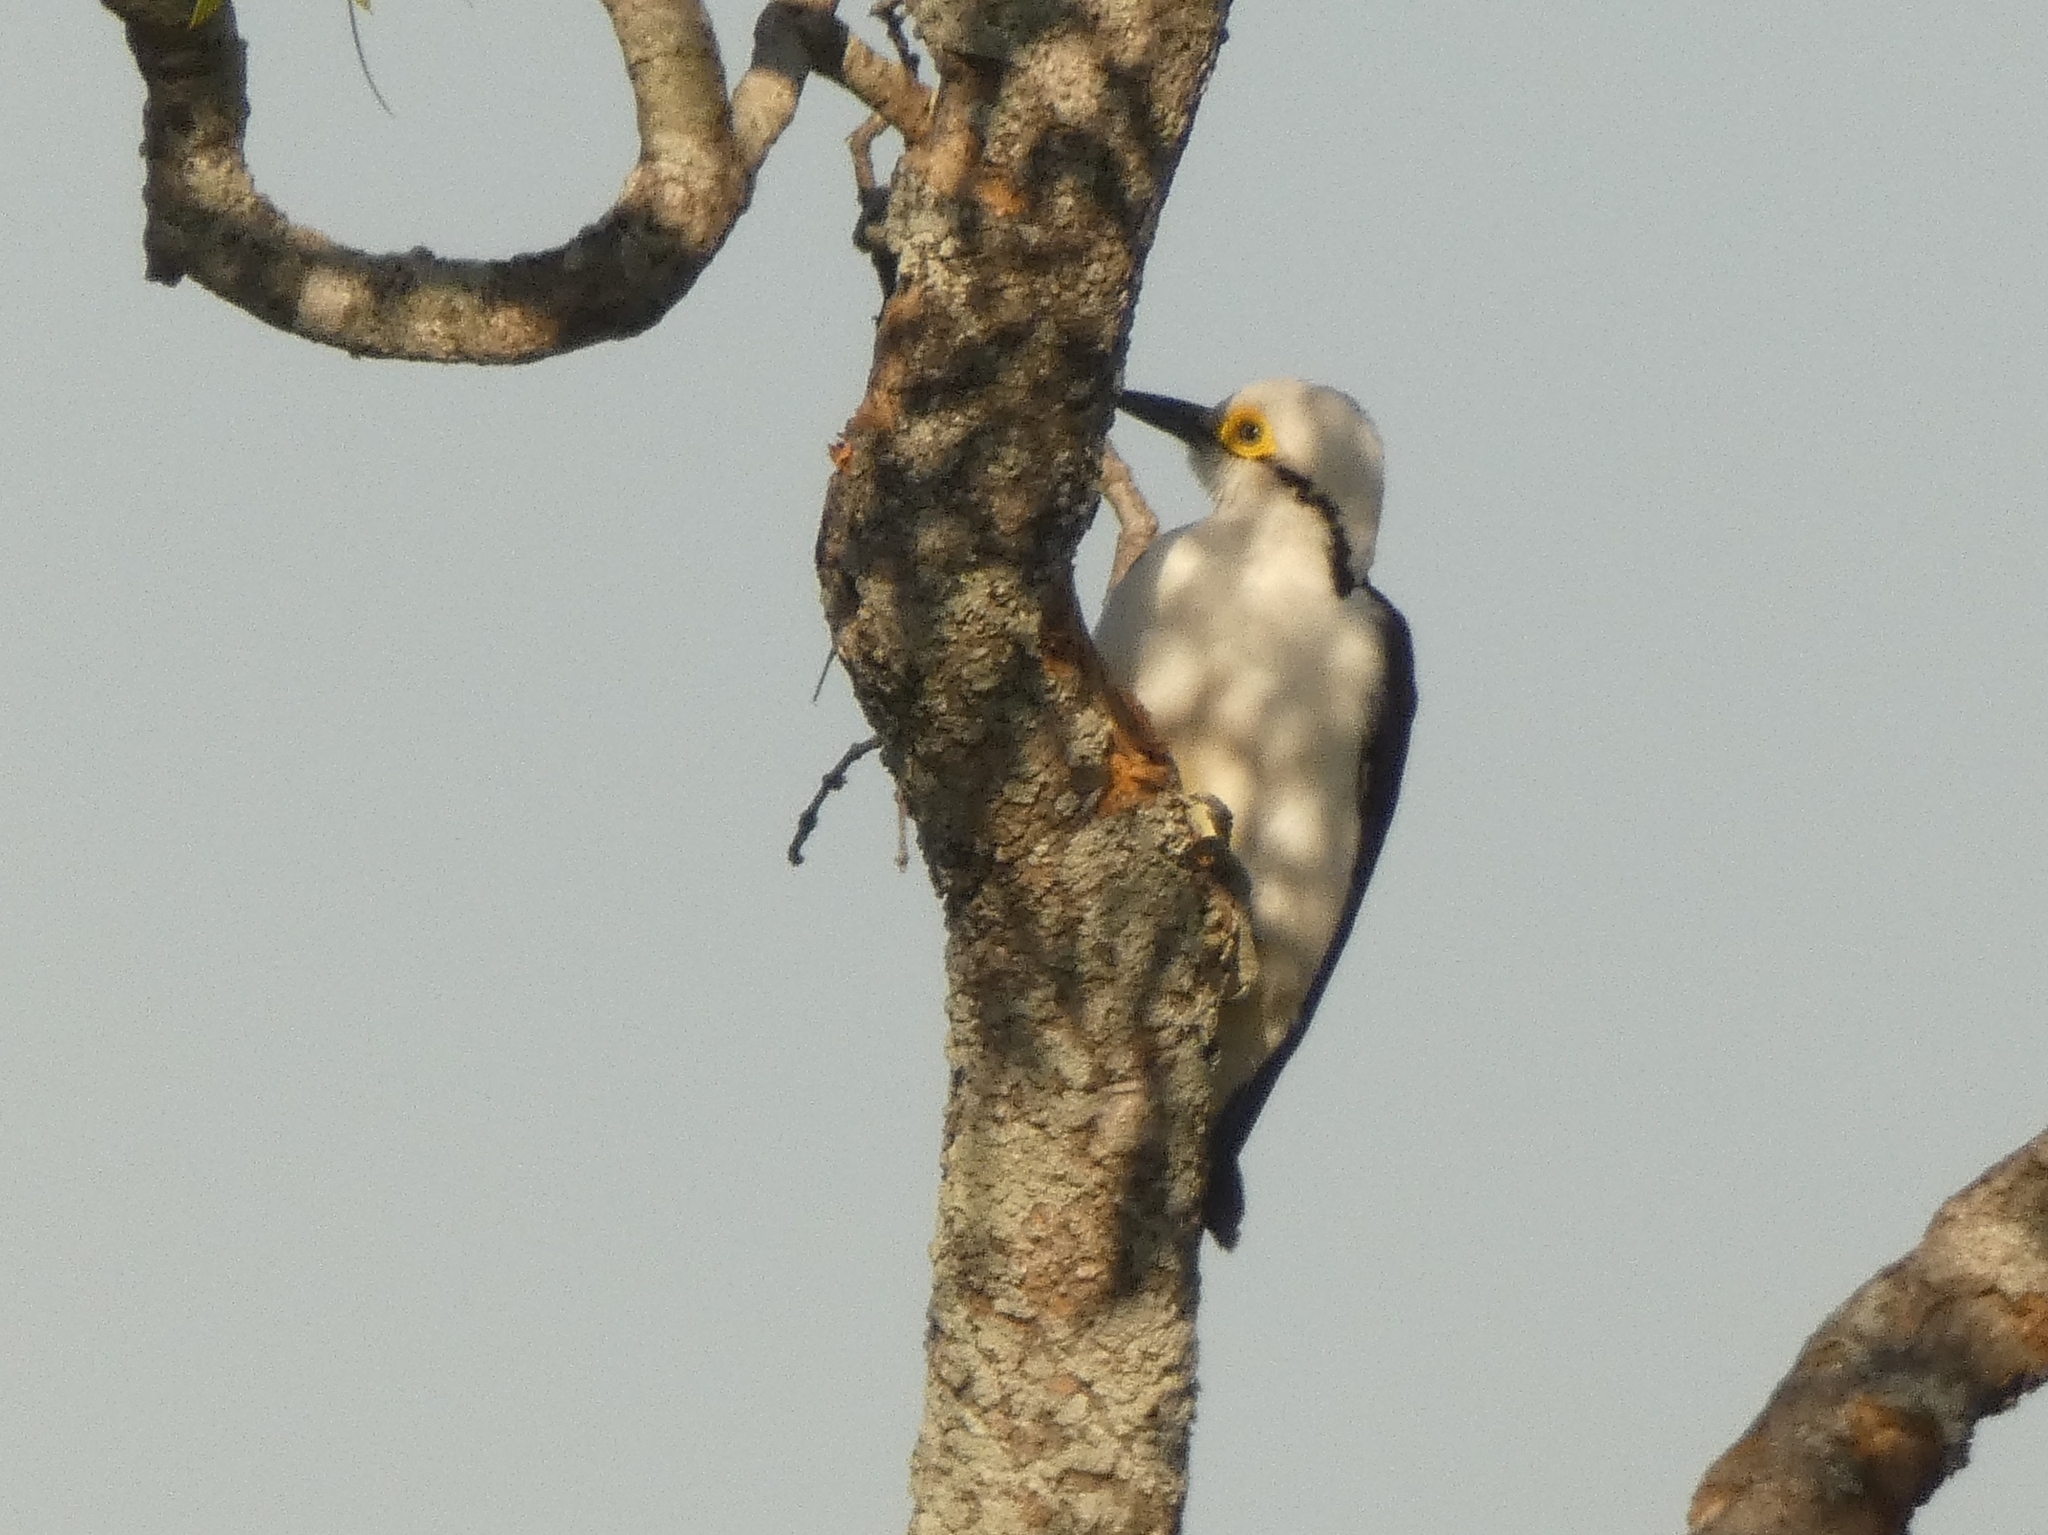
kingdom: Animalia
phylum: Chordata
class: Aves
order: Piciformes
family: Picidae
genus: Melanerpes
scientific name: Melanerpes candidus
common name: White woodpecker
